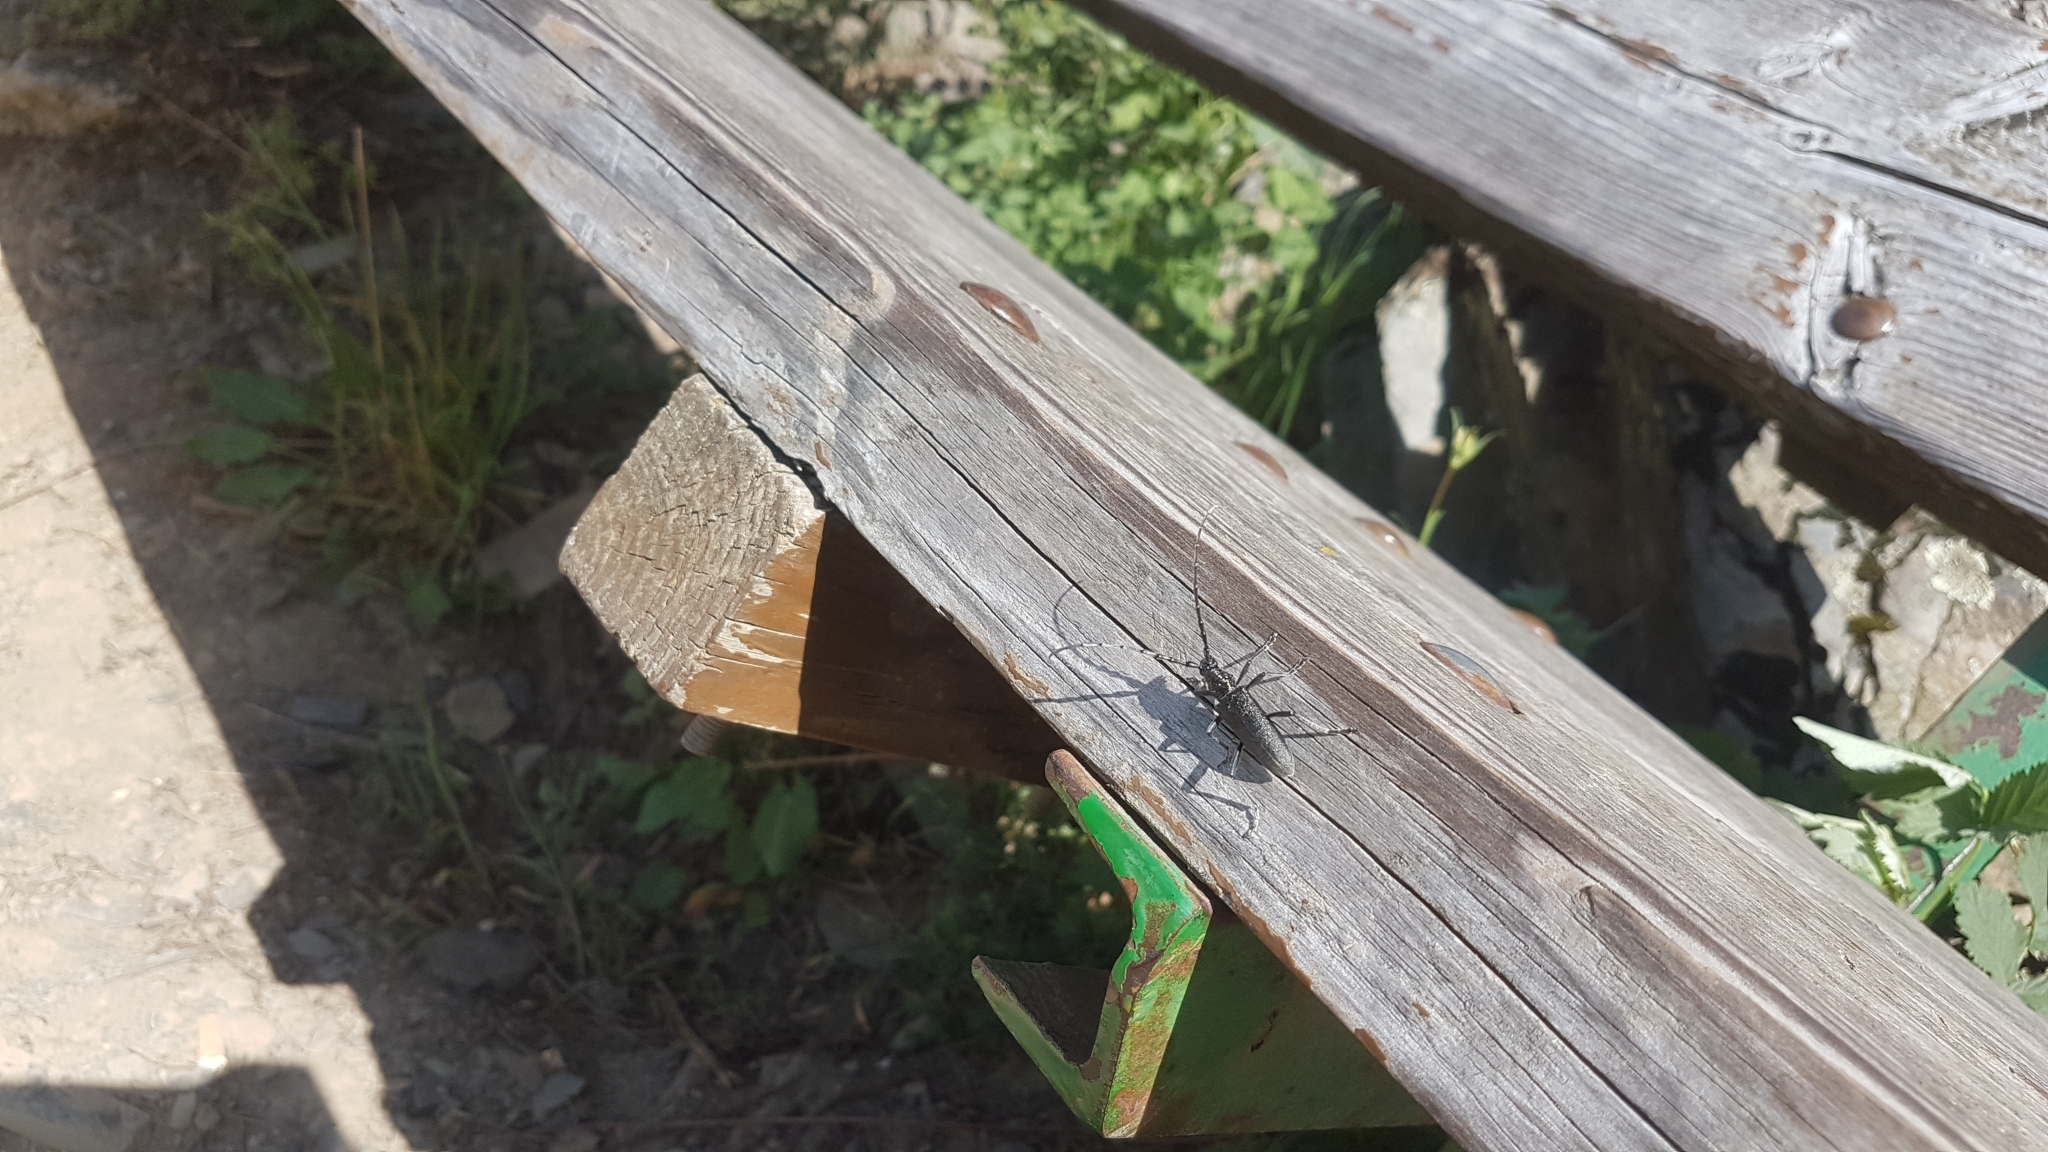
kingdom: Animalia
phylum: Arthropoda
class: Insecta
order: Coleoptera
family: Cerambycidae
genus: Cerambyx
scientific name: Cerambyx scopolii
